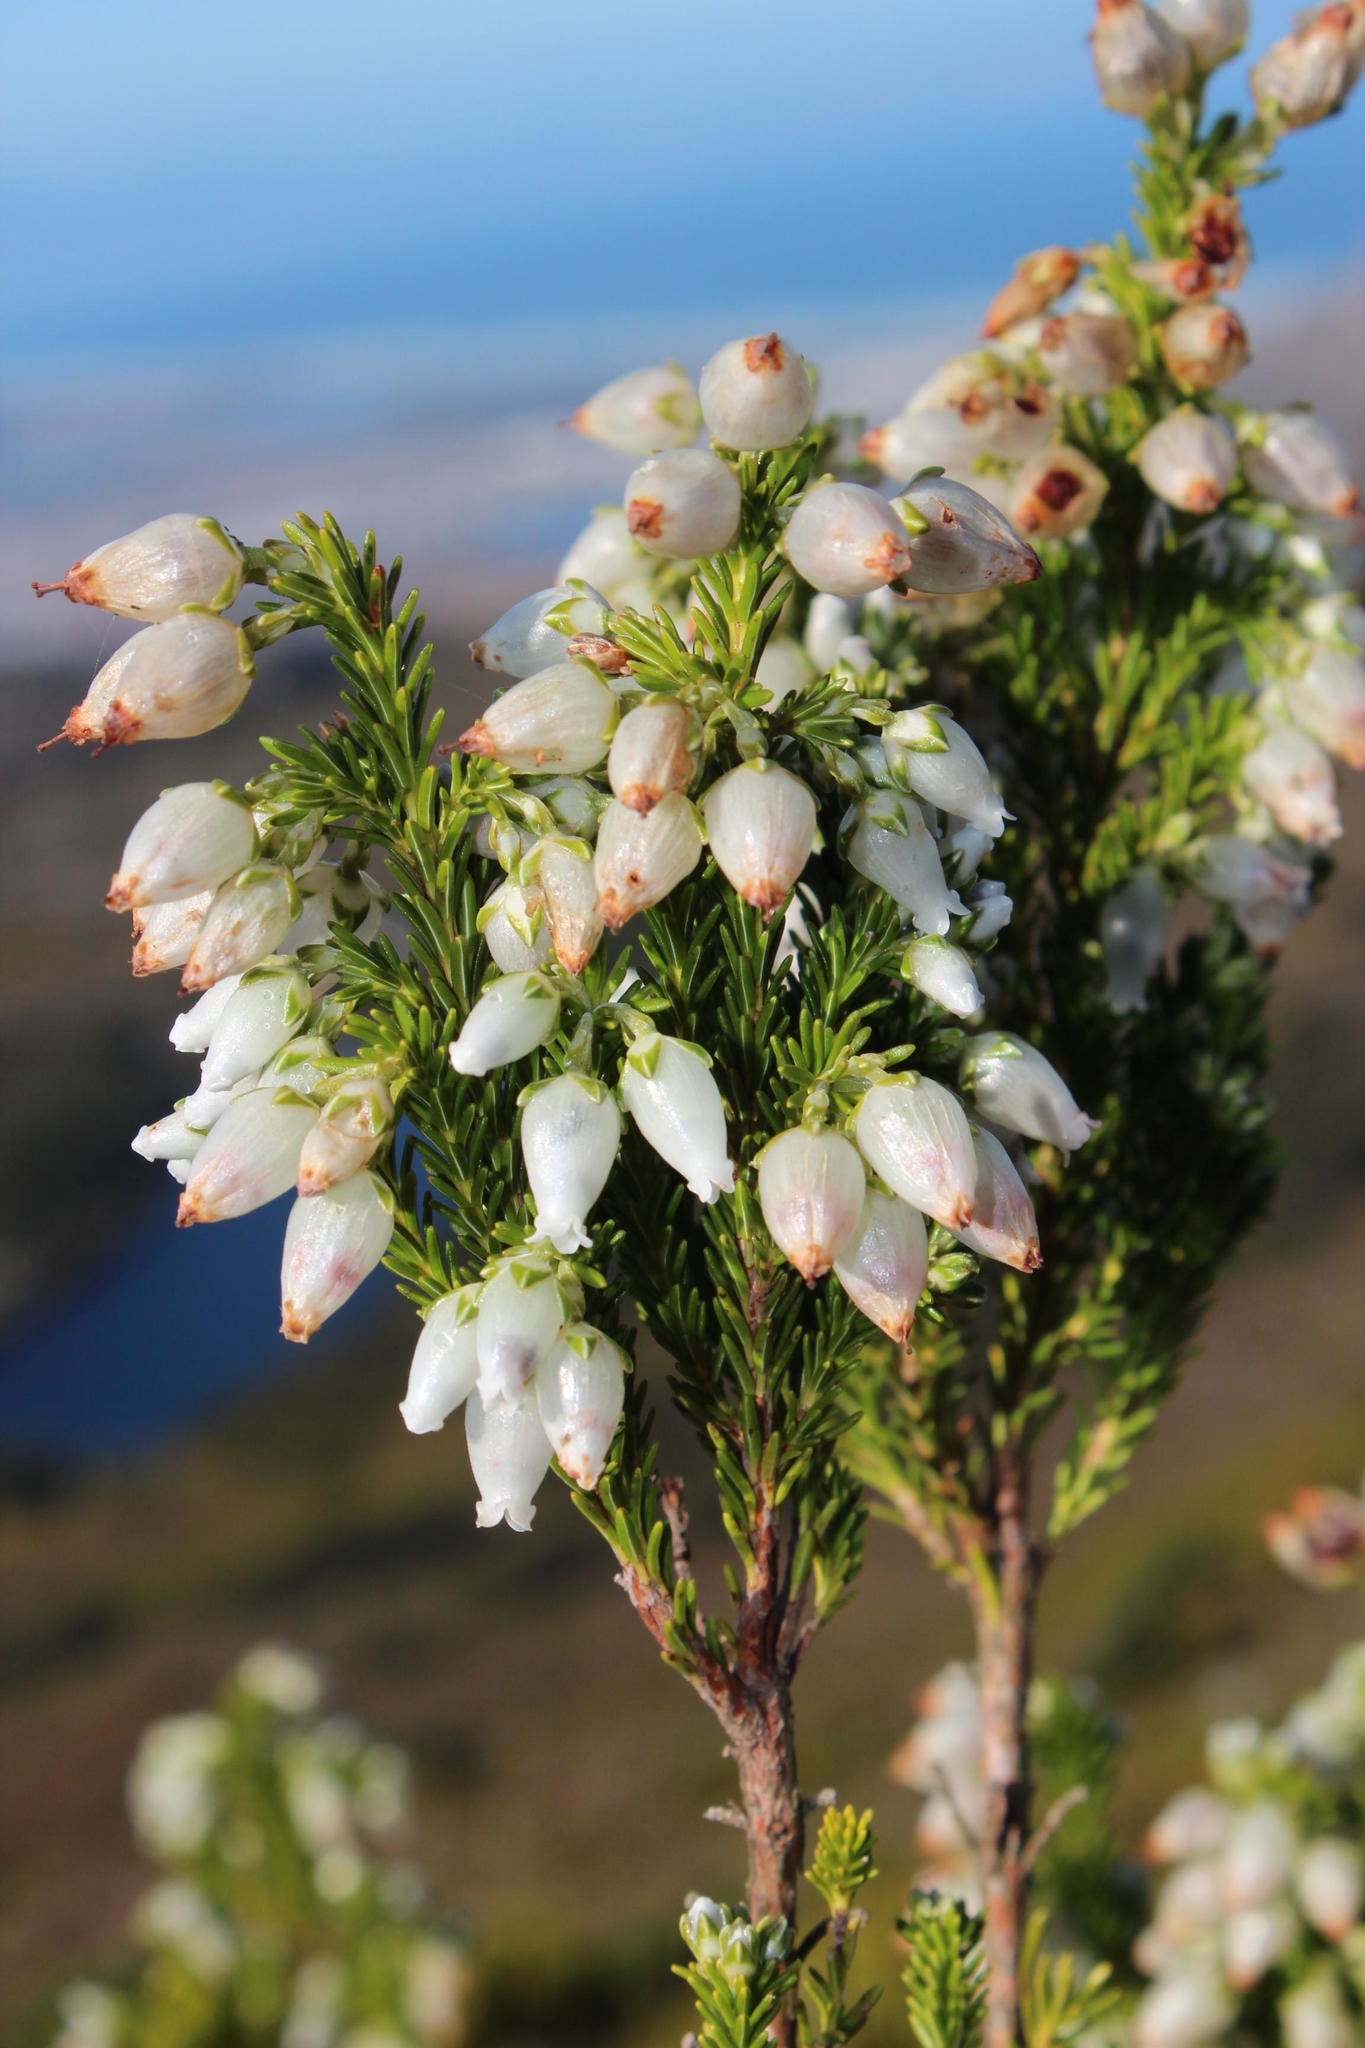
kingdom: Plantae
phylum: Tracheophyta
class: Magnoliopsida
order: Ericales
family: Ericaceae
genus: Erica
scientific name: Erica physodes
